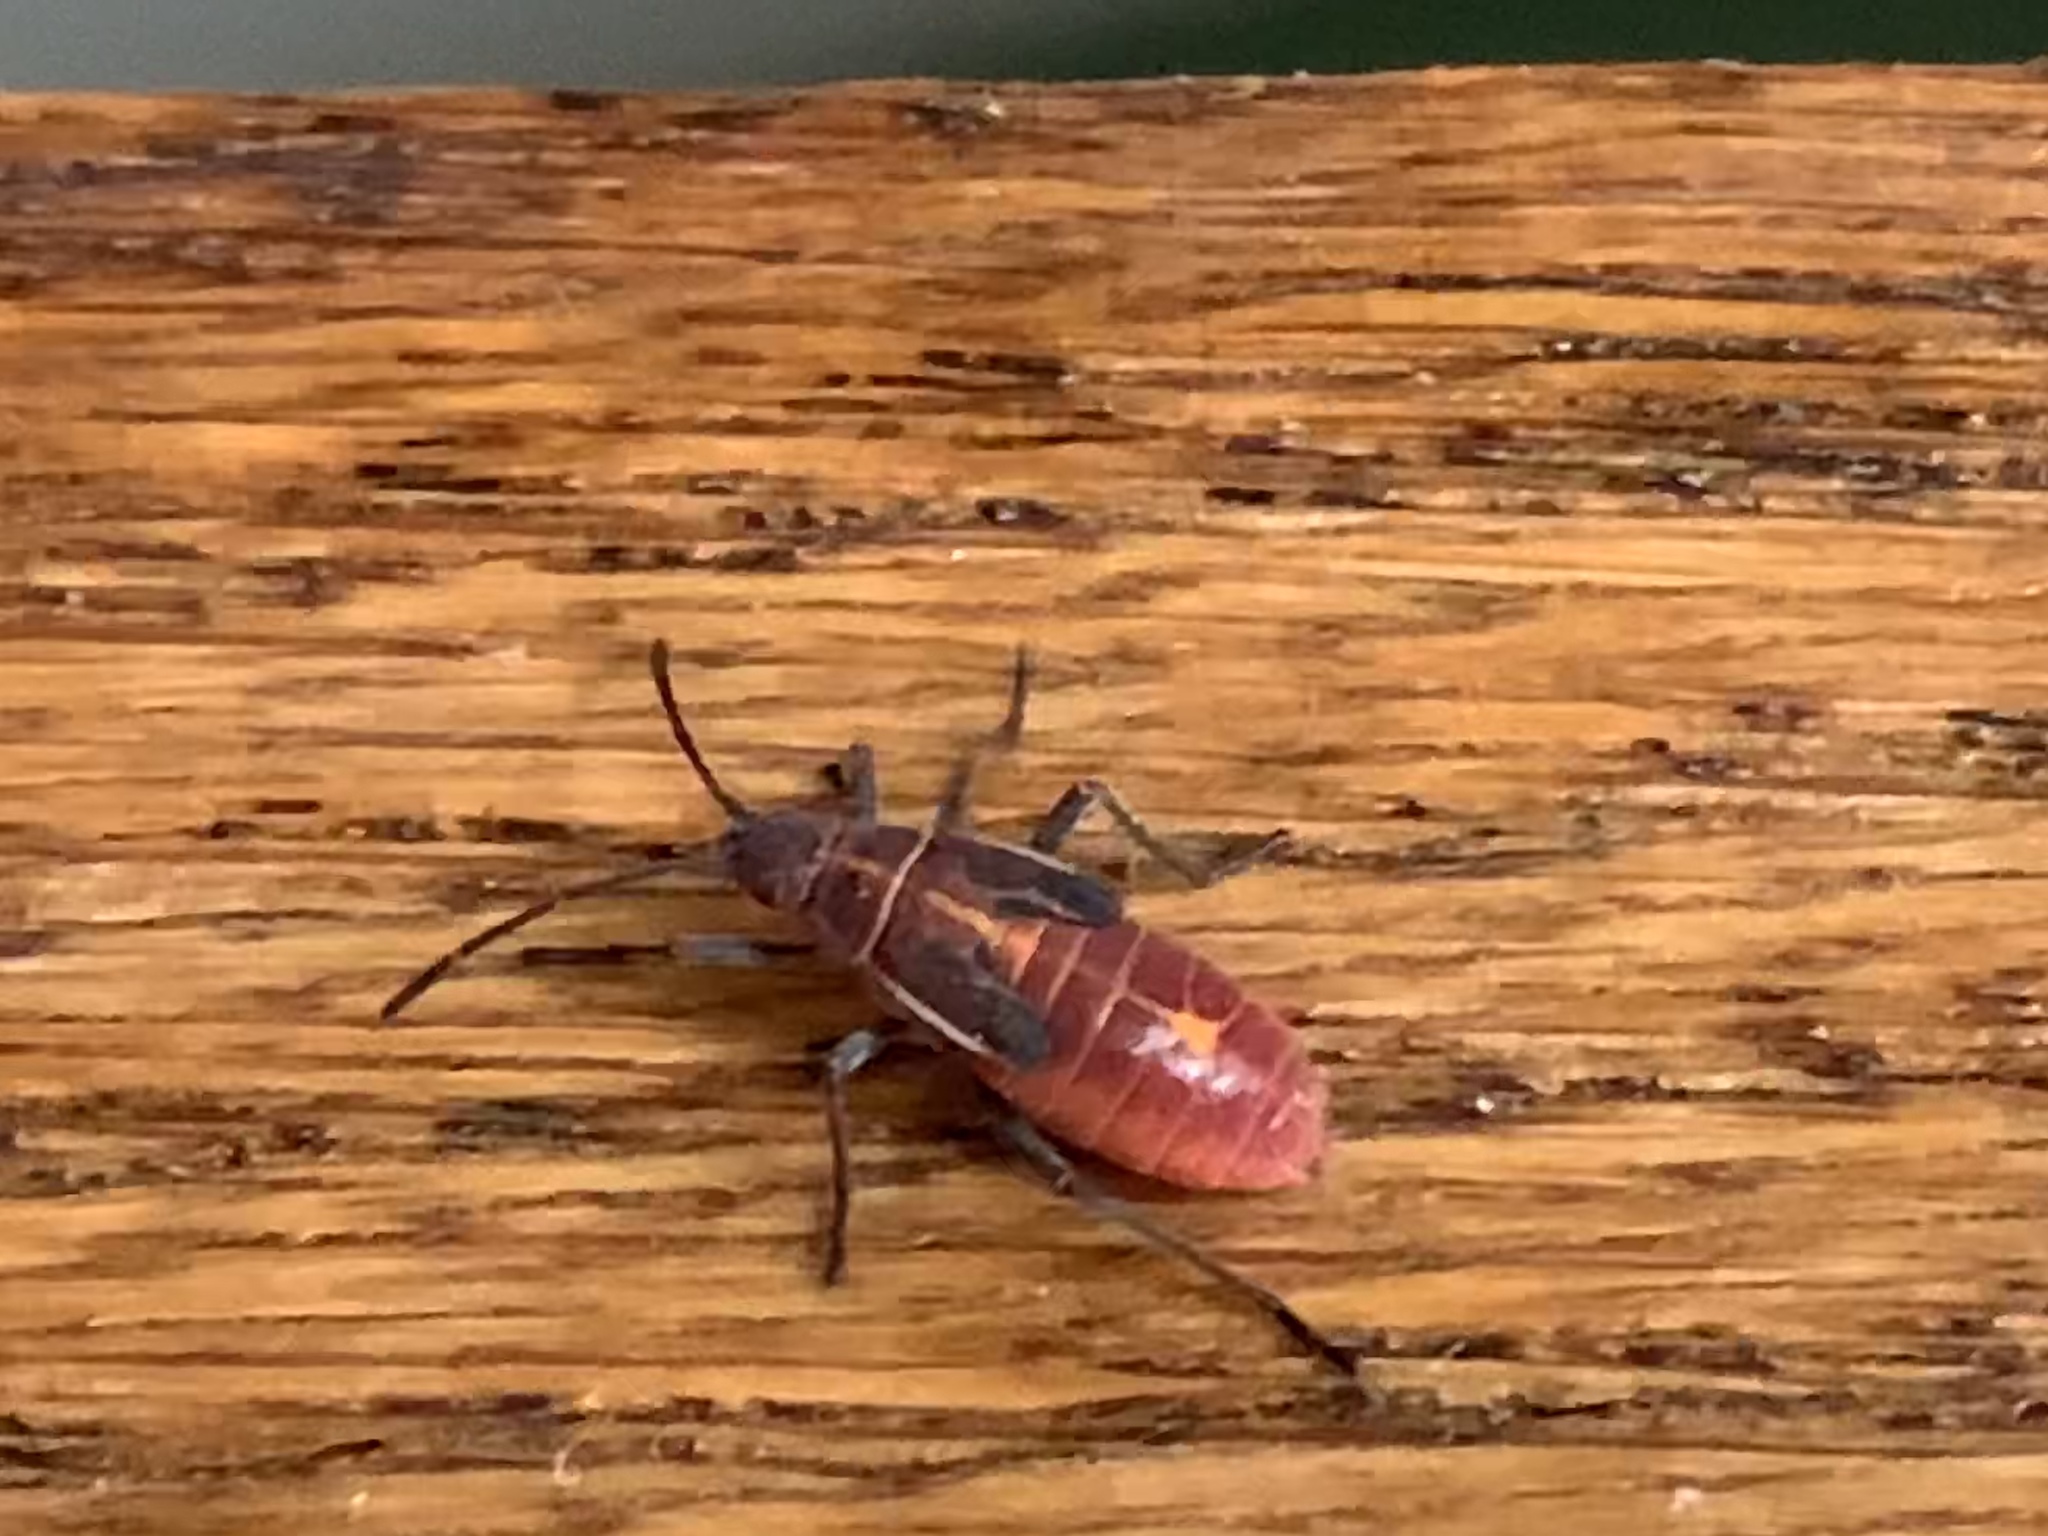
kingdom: Animalia
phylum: Arthropoda
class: Insecta
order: Hemiptera
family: Rhopalidae
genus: Boisea
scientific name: Boisea rubrolineata
